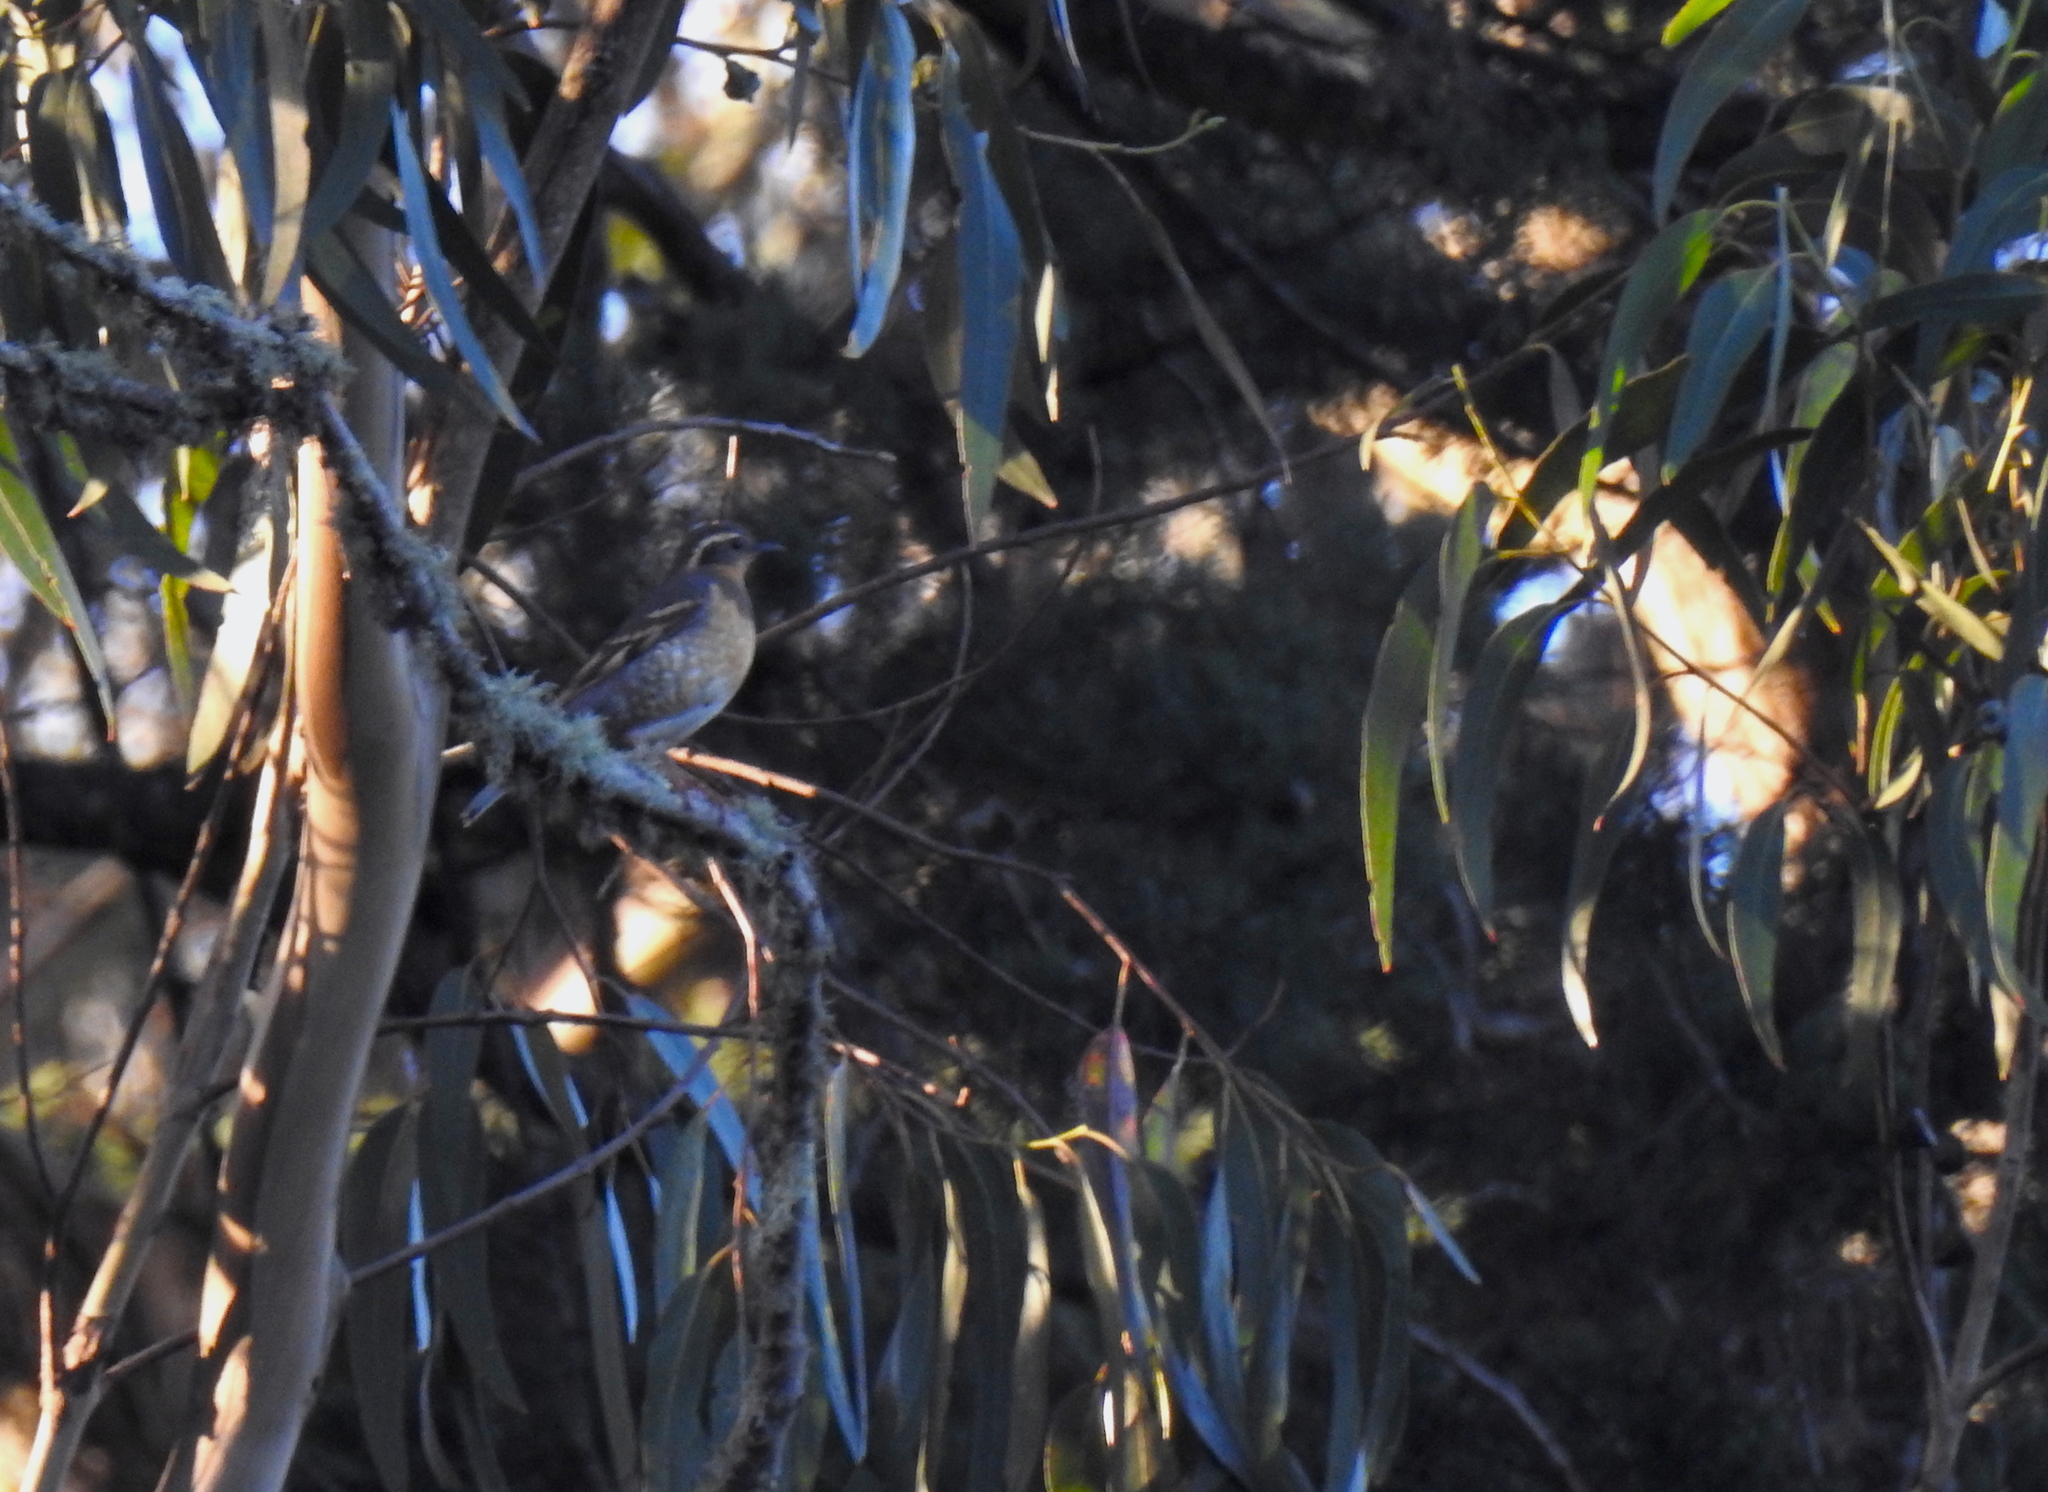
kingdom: Animalia
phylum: Chordata
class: Aves
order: Passeriformes
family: Turdidae
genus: Ixoreus
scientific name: Ixoreus naevius
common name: Varied thrush
